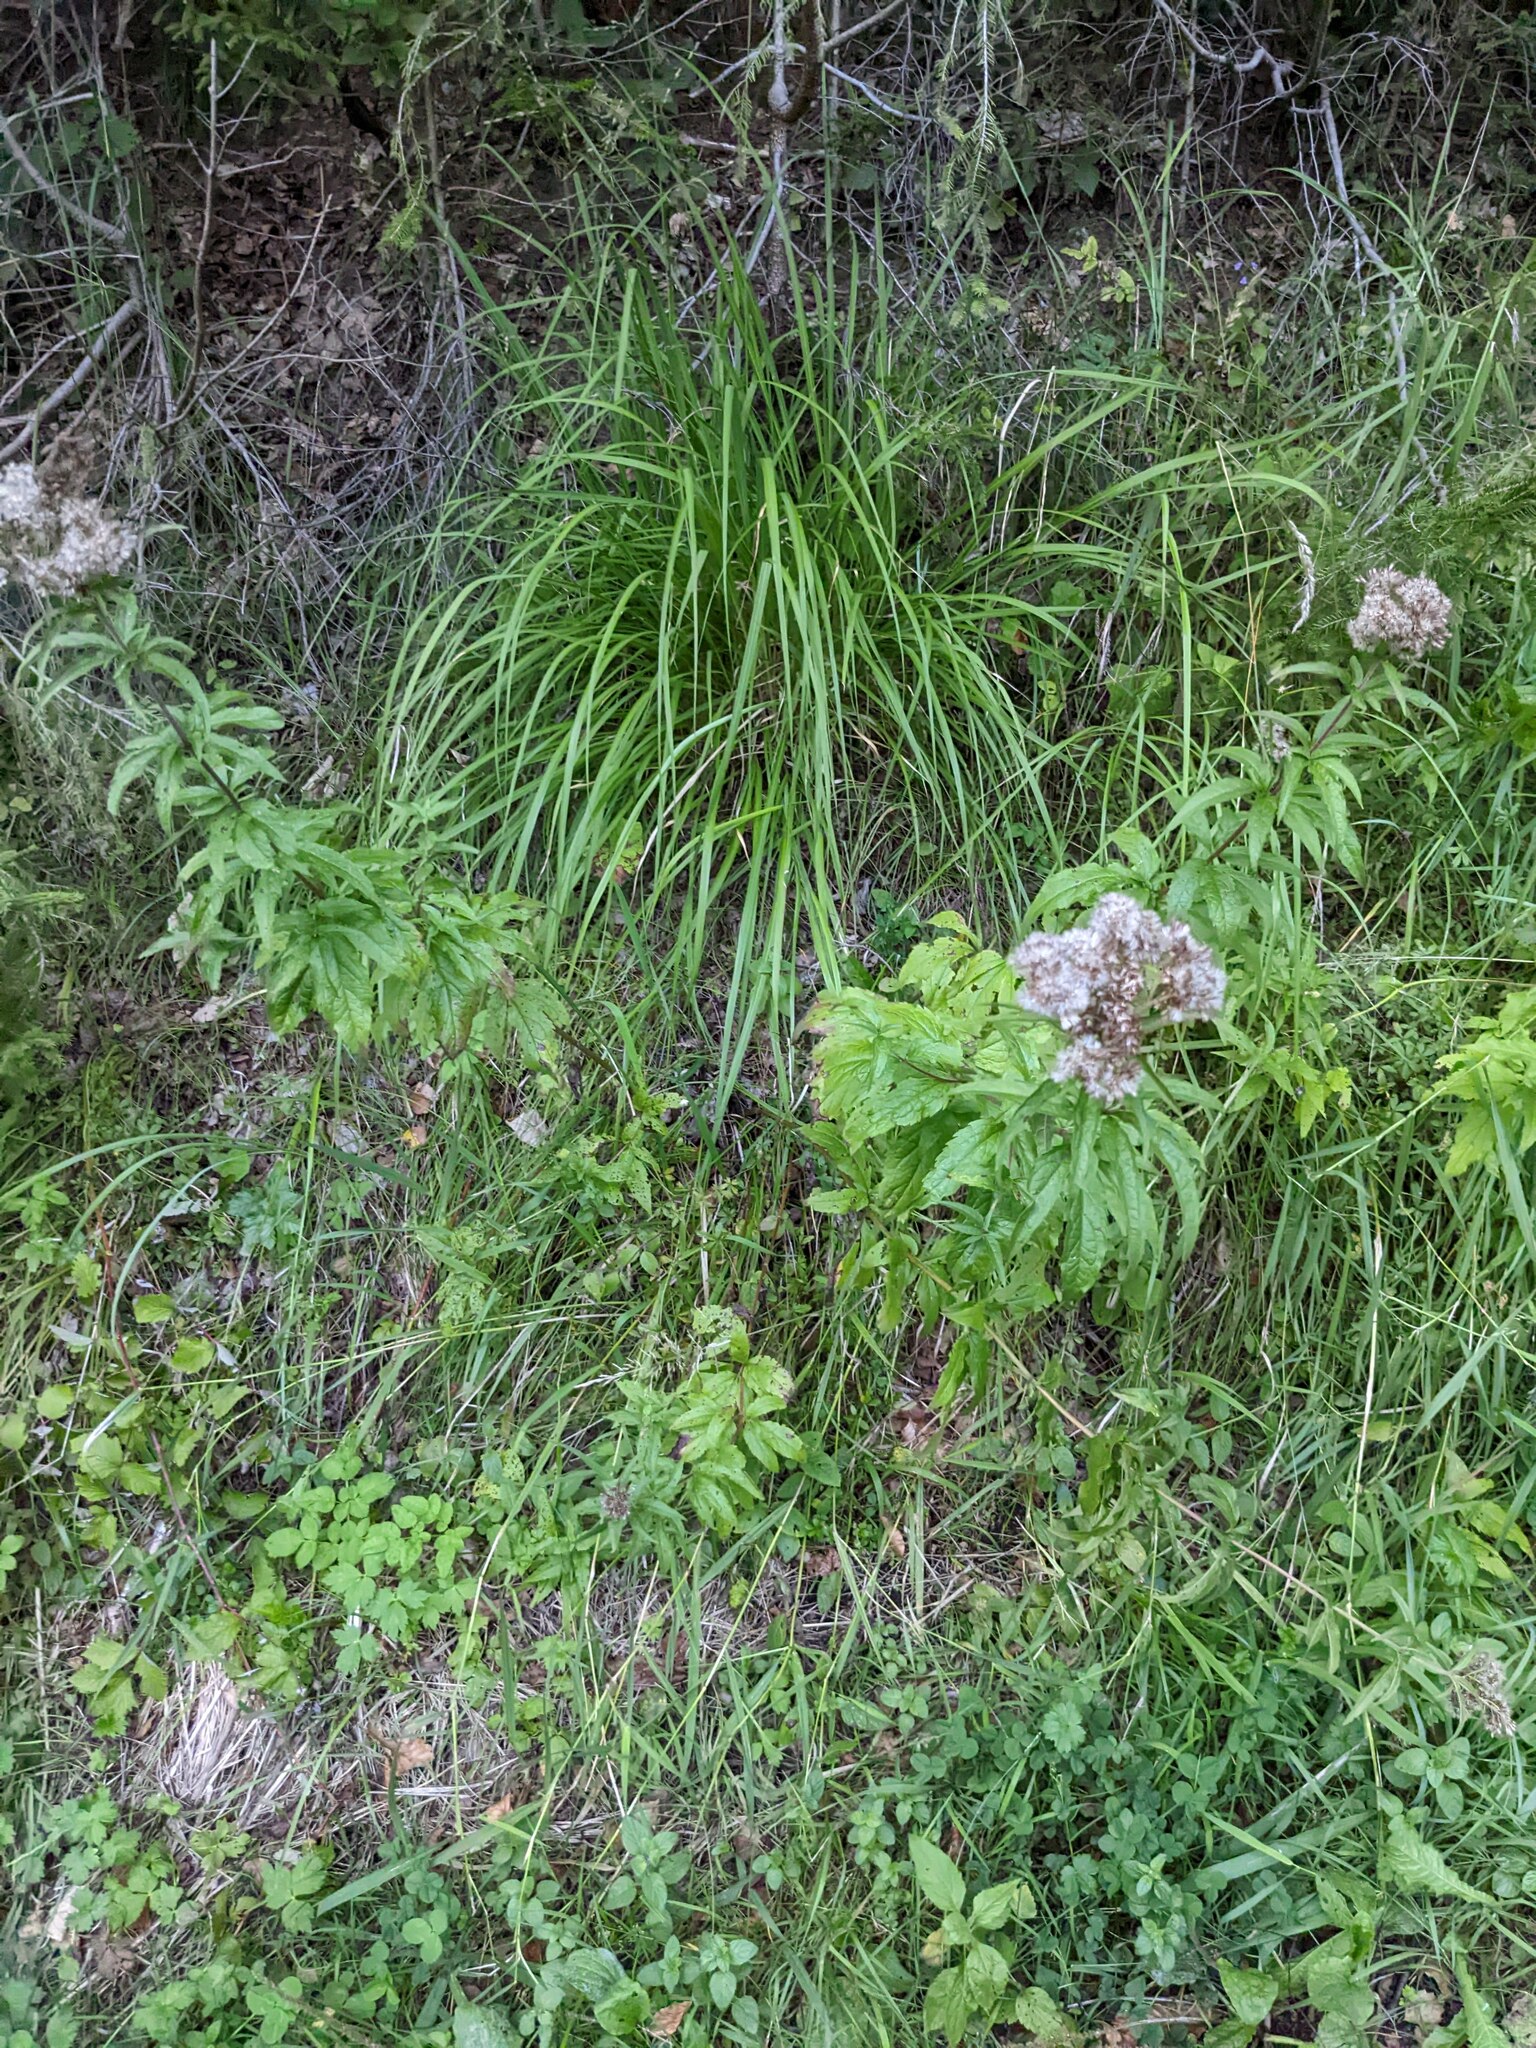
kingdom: Plantae
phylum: Tracheophyta
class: Magnoliopsida
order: Asterales
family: Asteraceae
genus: Eupatorium
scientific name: Eupatorium cannabinum
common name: Hemp-agrimony
